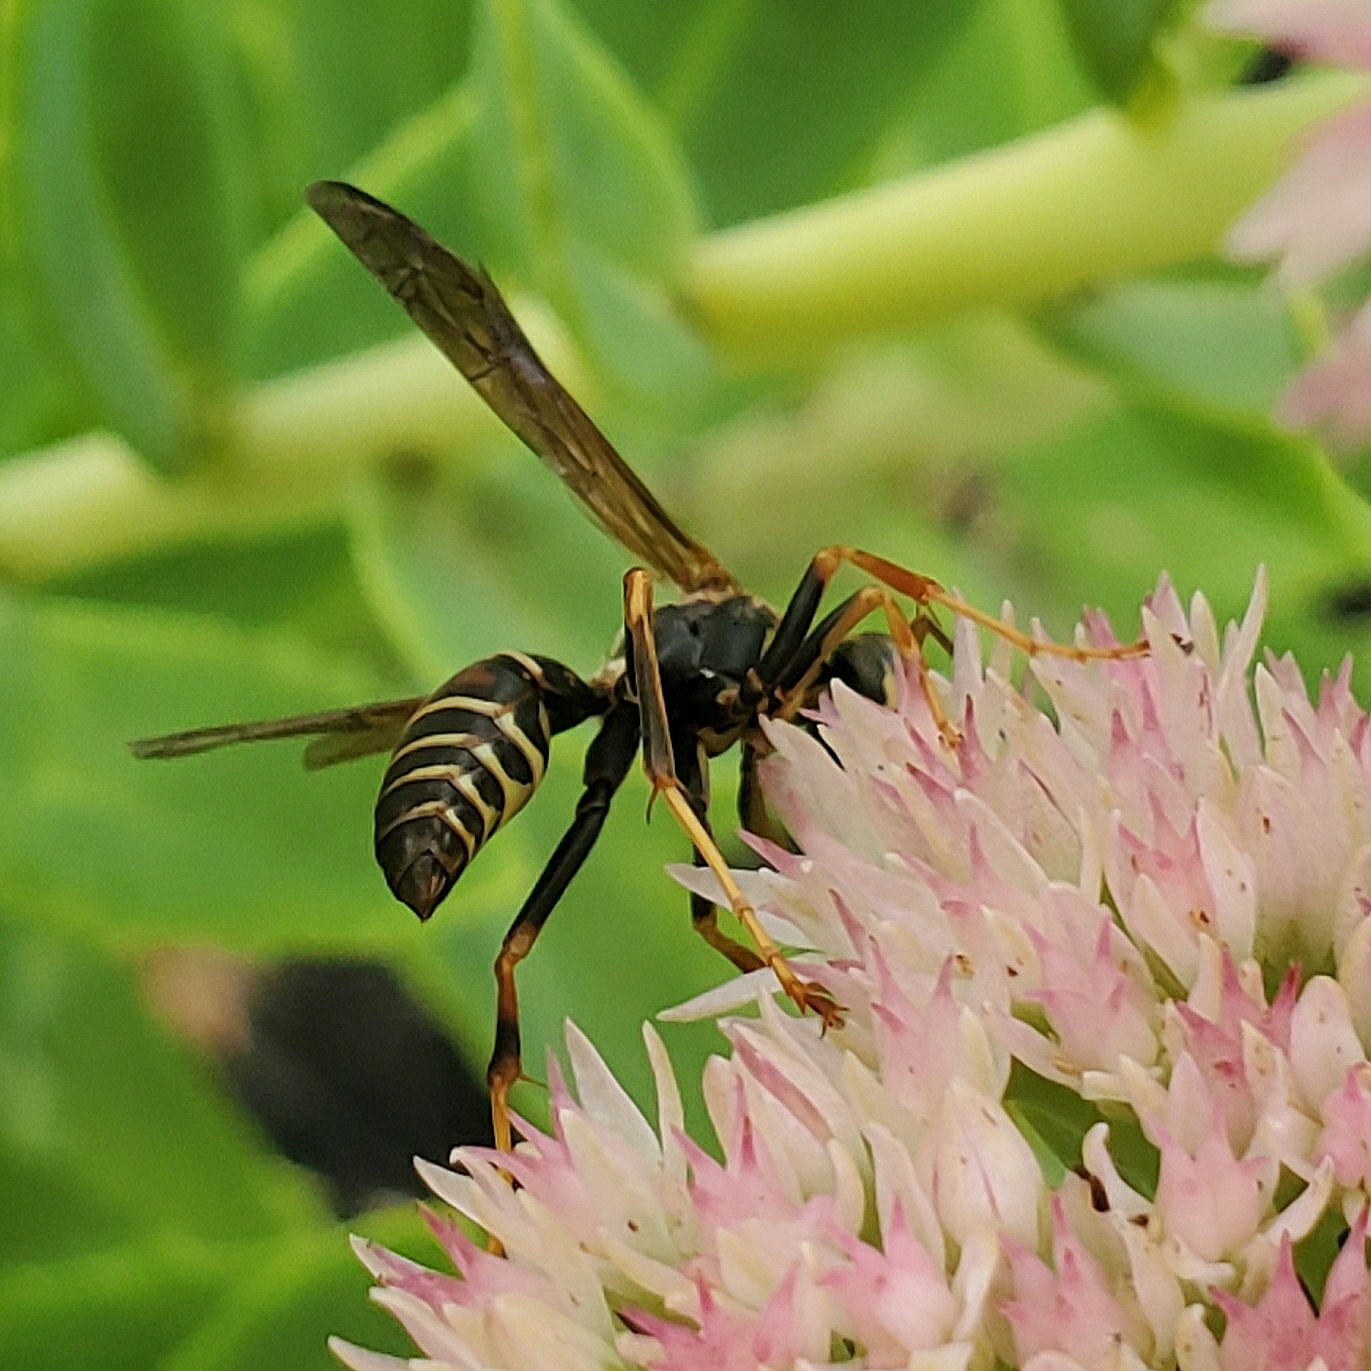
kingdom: Animalia
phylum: Arthropoda
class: Insecta
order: Hymenoptera
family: Eumenidae
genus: Polistes
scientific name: Polistes fuscatus
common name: Dark paper wasp
